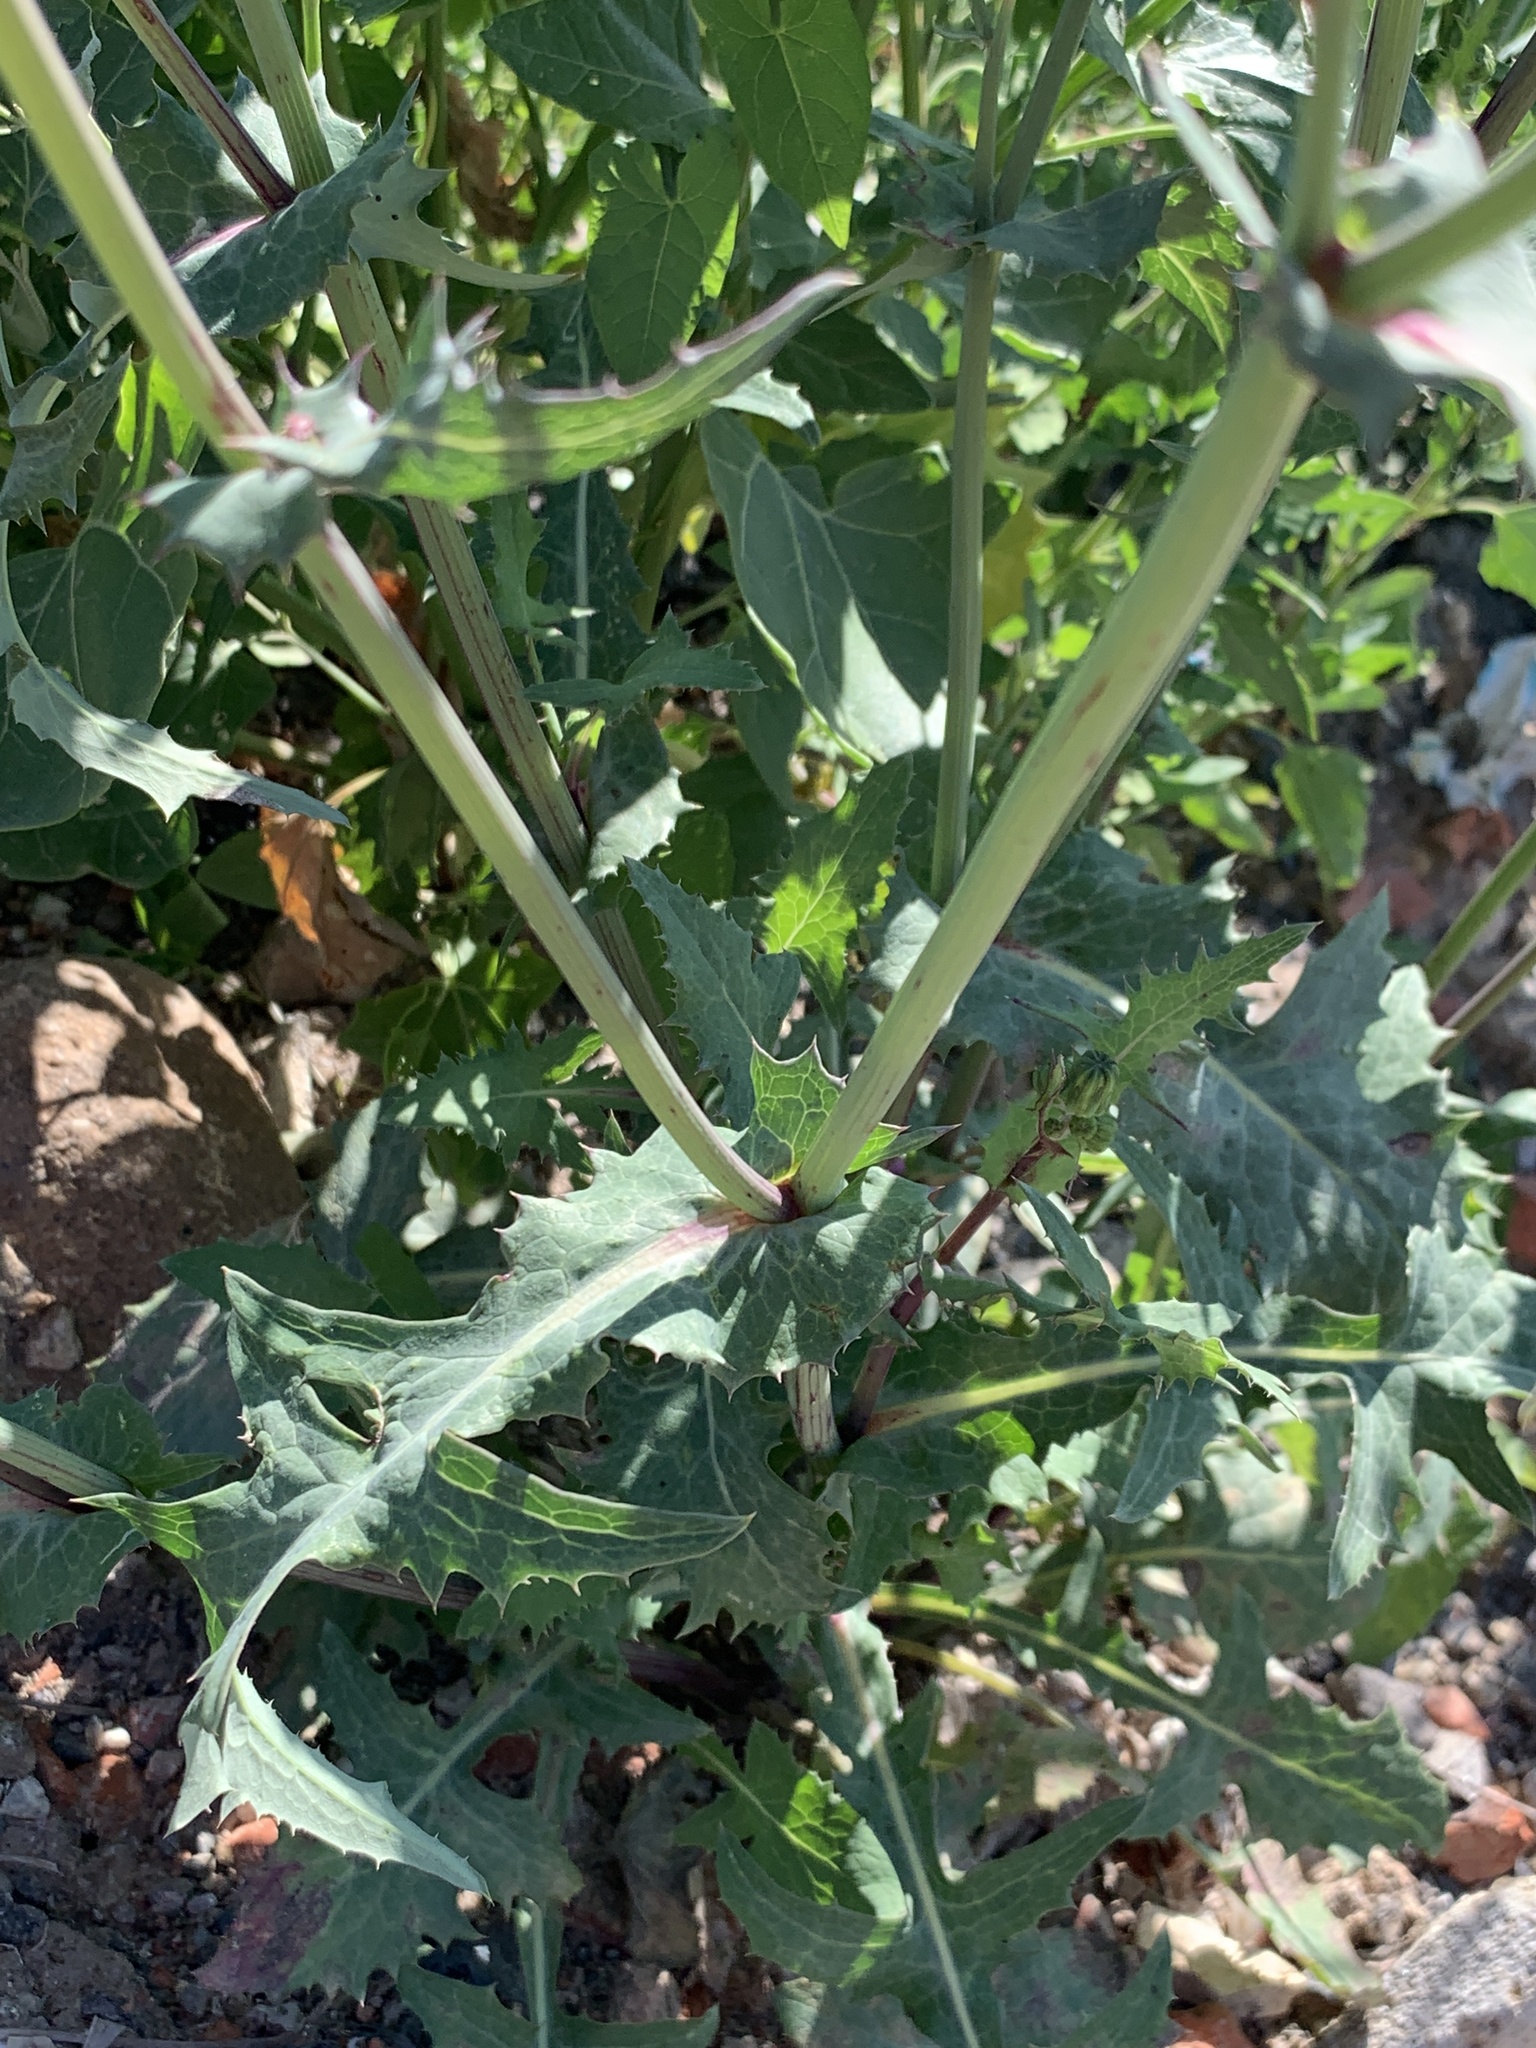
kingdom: Plantae
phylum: Tracheophyta
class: Magnoliopsida
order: Asterales
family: Asteraceae
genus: Sonchus
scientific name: Sonchus oleraceus
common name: Common sowthistle
